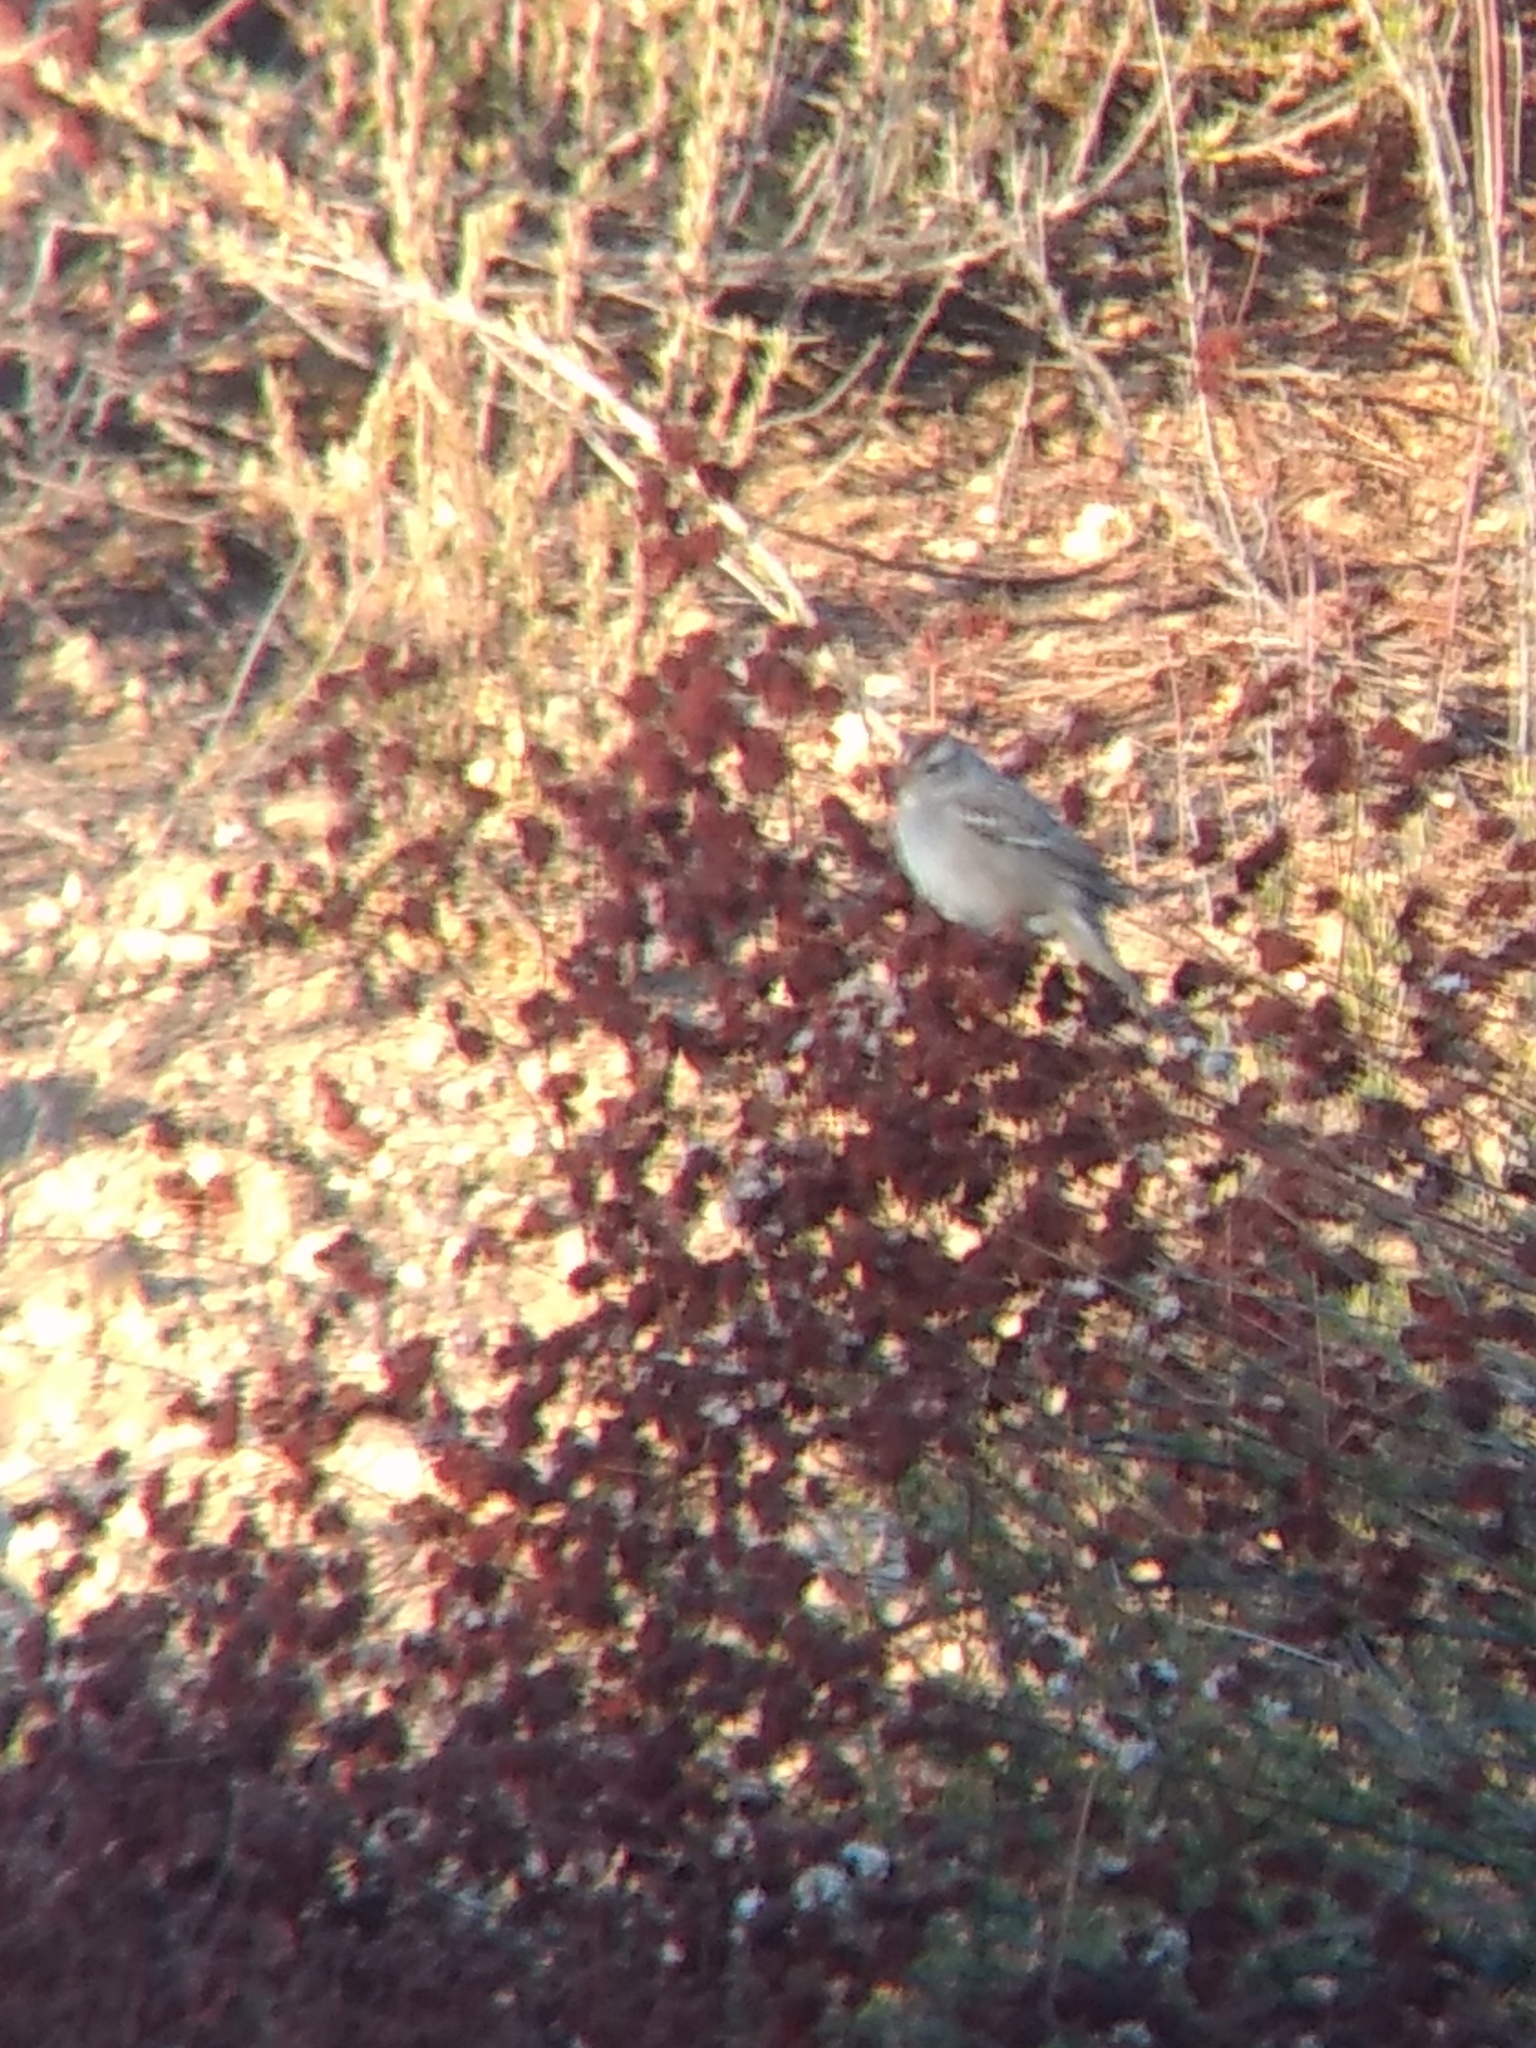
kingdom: Animalia
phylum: Chordata
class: Aves
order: Passeriformes
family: Passerellidae
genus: Zonotrichia
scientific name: Zonotrichia leucophrys
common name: White-crowned sparrow
